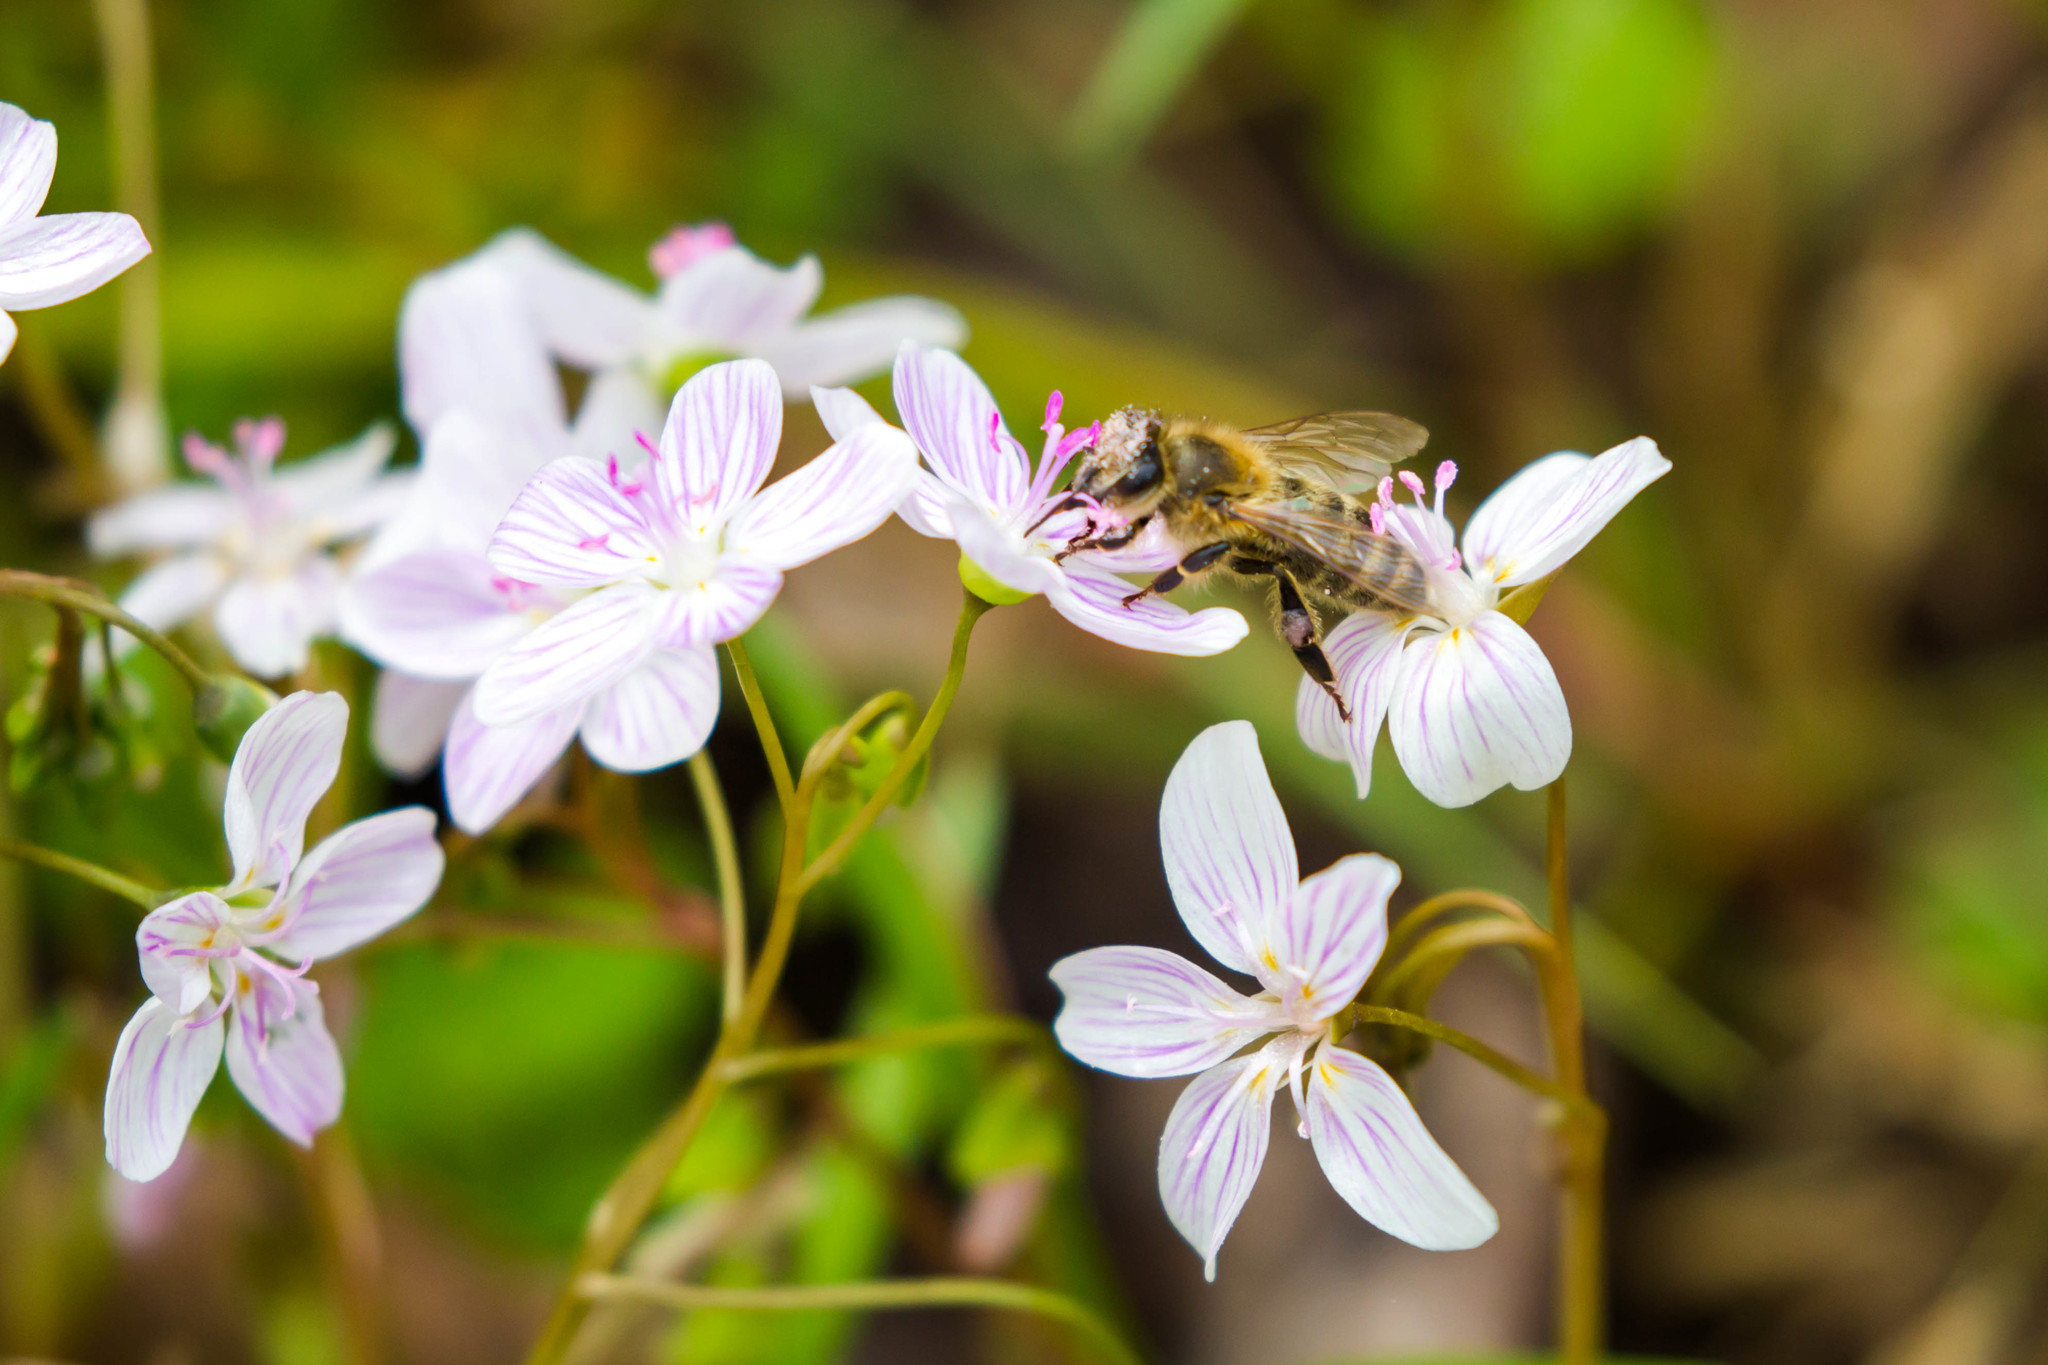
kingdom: Animalia
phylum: Arthropoda
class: Insecta
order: Hymenoptera
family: Apidae
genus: Apis
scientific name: Apis mellifera
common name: Honey bee
